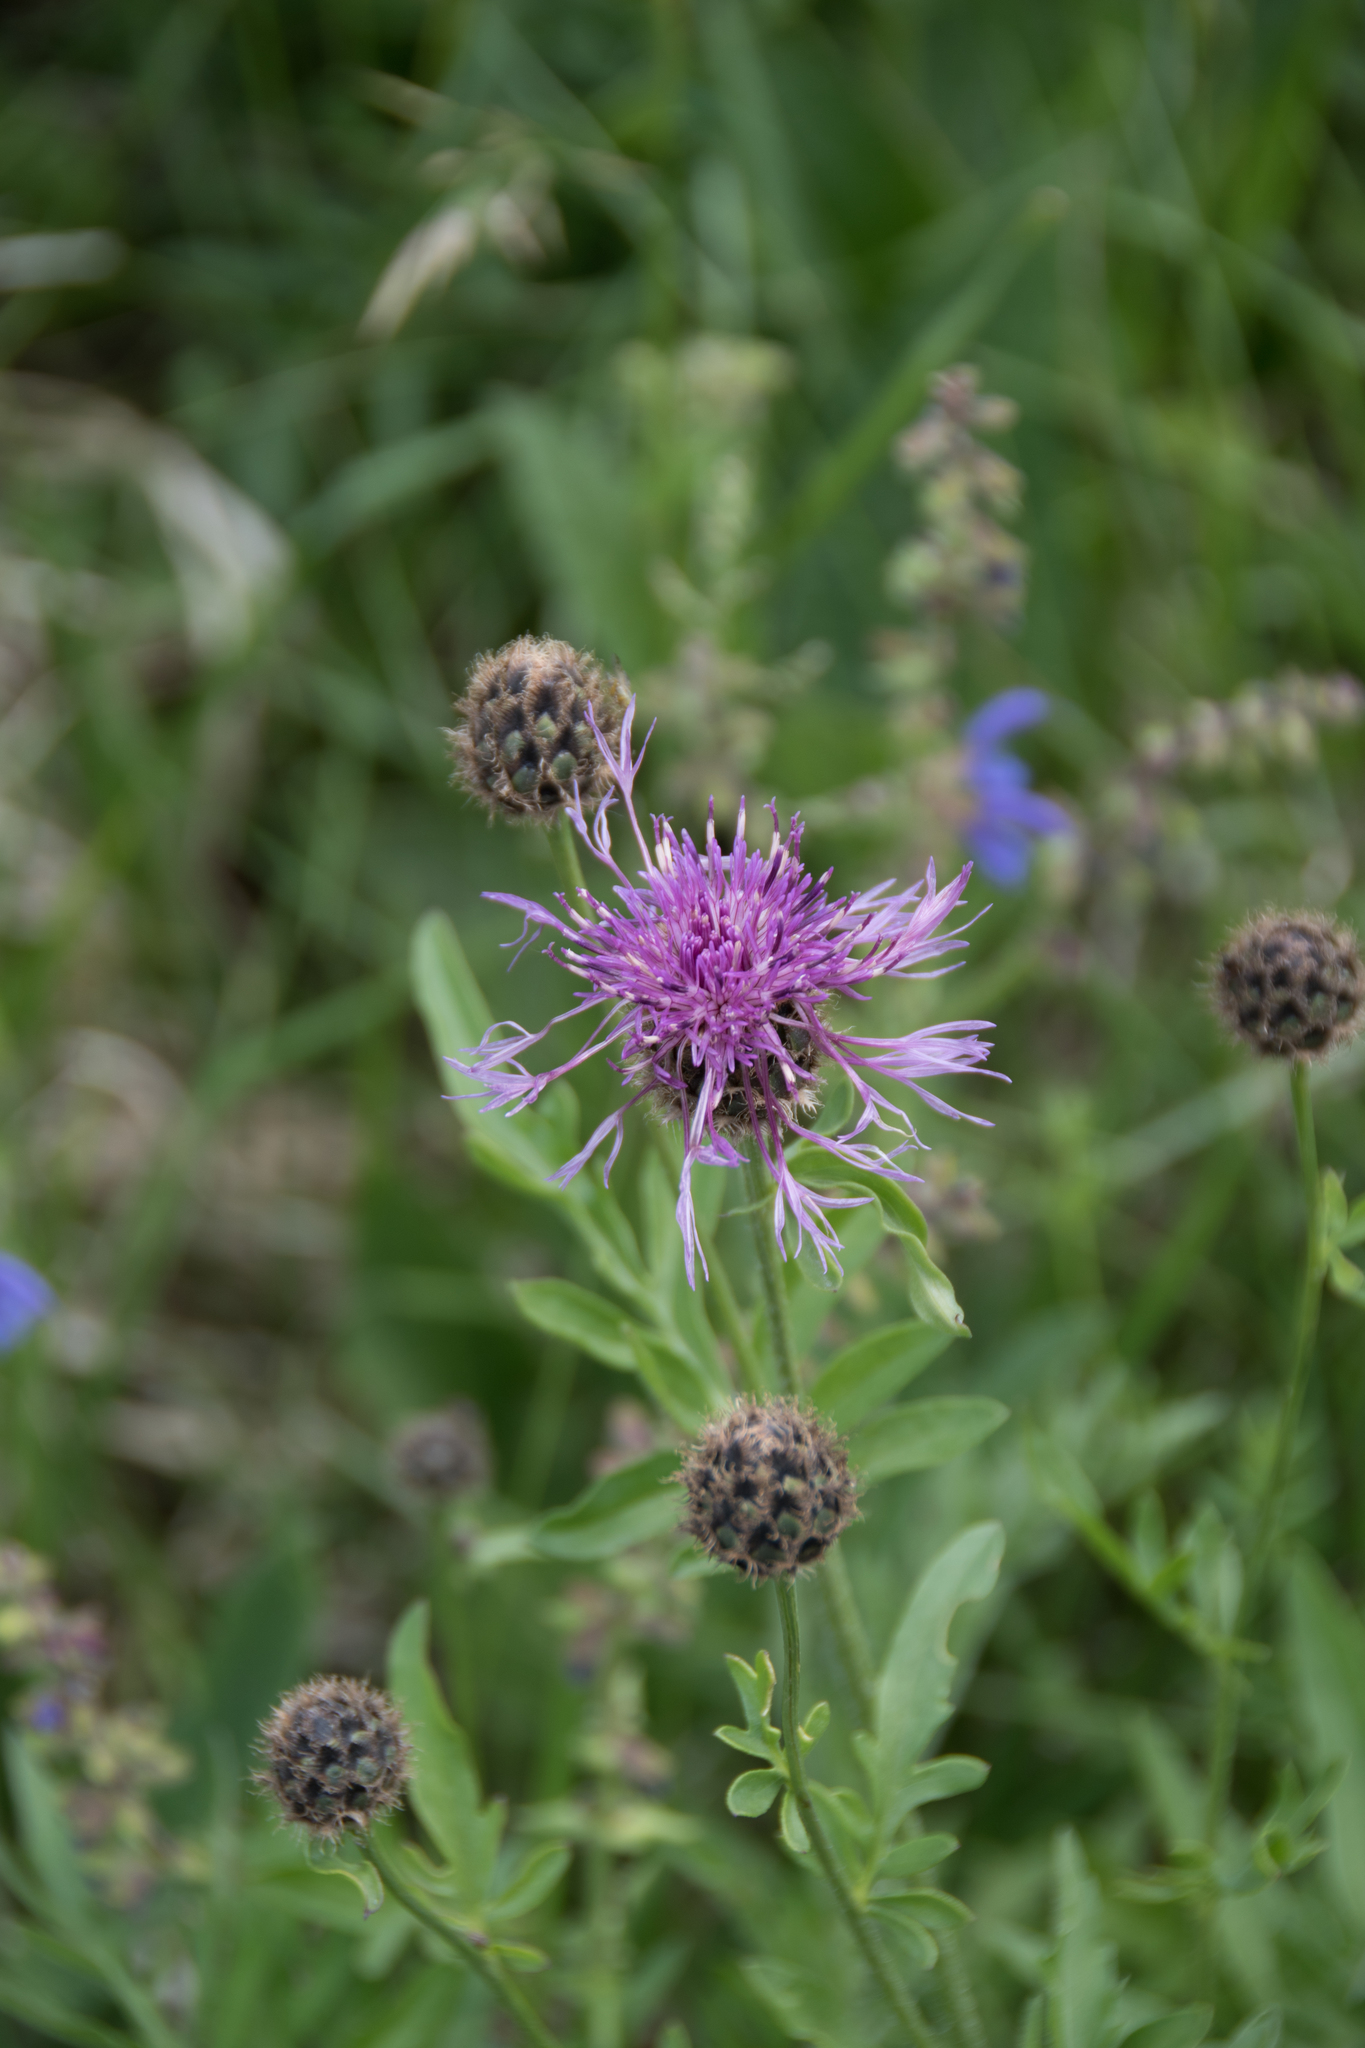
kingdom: Plantae
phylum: Tracheophyta
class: Magnoliopsida
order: Asterales
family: Asteraceae
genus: Centaurea
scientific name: Centaurea scabiosa
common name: Greater knapweed
